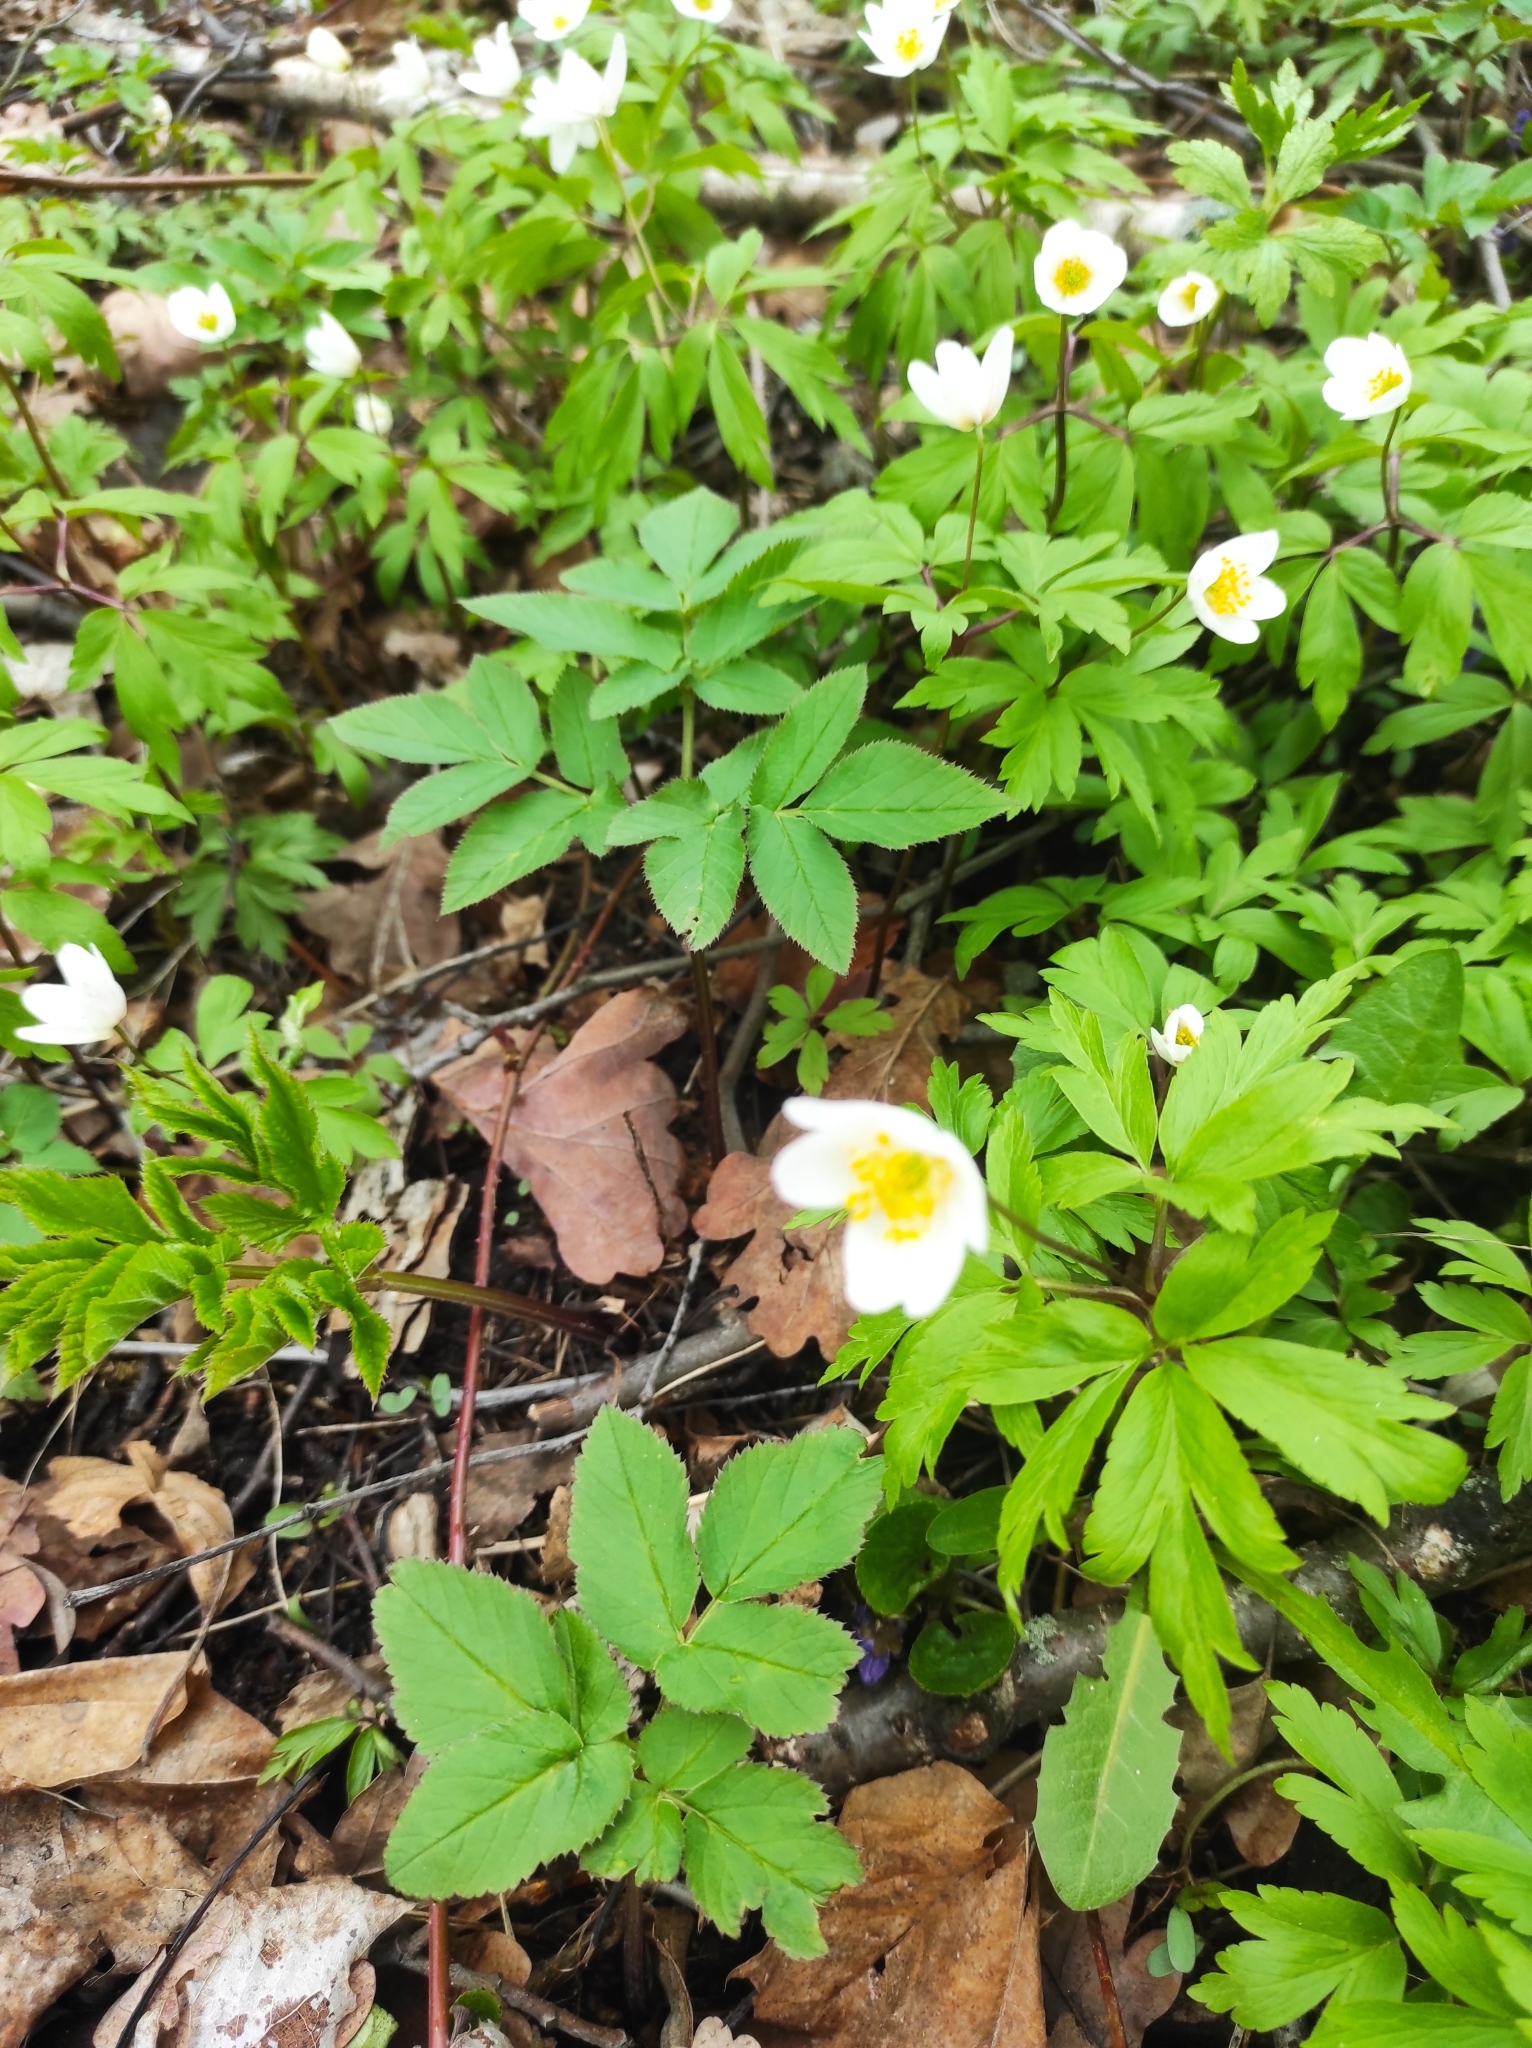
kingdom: Plantae
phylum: Tracheophyta
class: Magnoliopsida
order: Ranunculales
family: Ranunculaceae
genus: Anemone
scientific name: Anemone nemorosa
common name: Wood anemone
